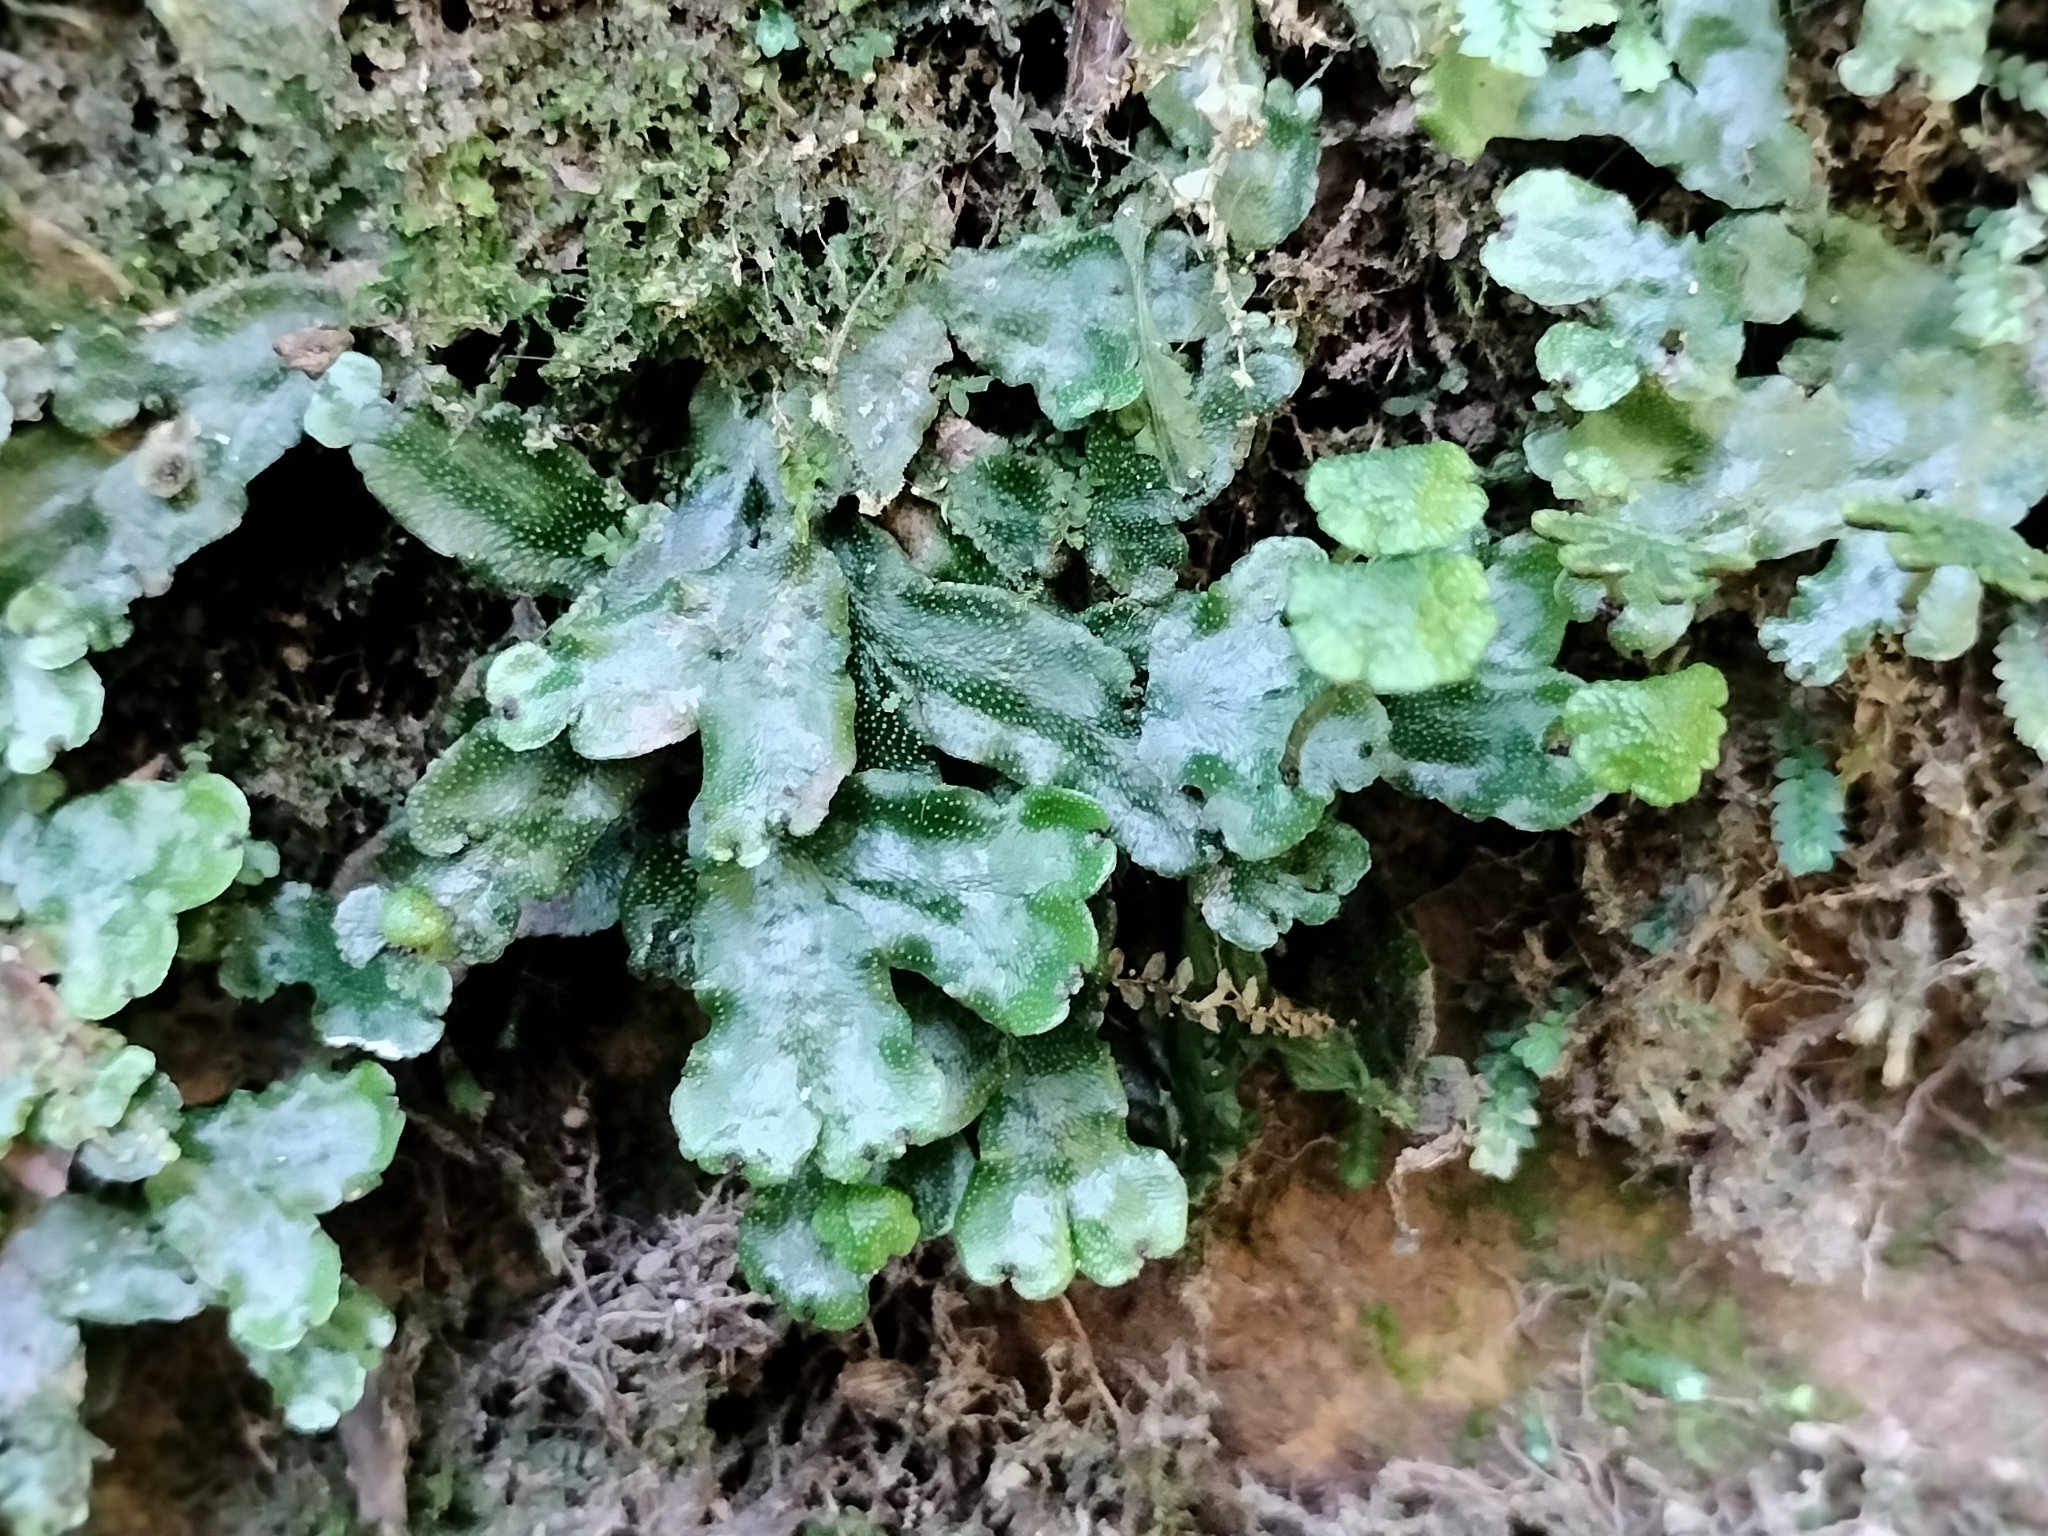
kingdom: Plantae
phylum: Marchantiophyta
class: Marchantiopsida
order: Marchantiales
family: Marchantiaceae
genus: Marchantia
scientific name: Marchantia chenopoda
